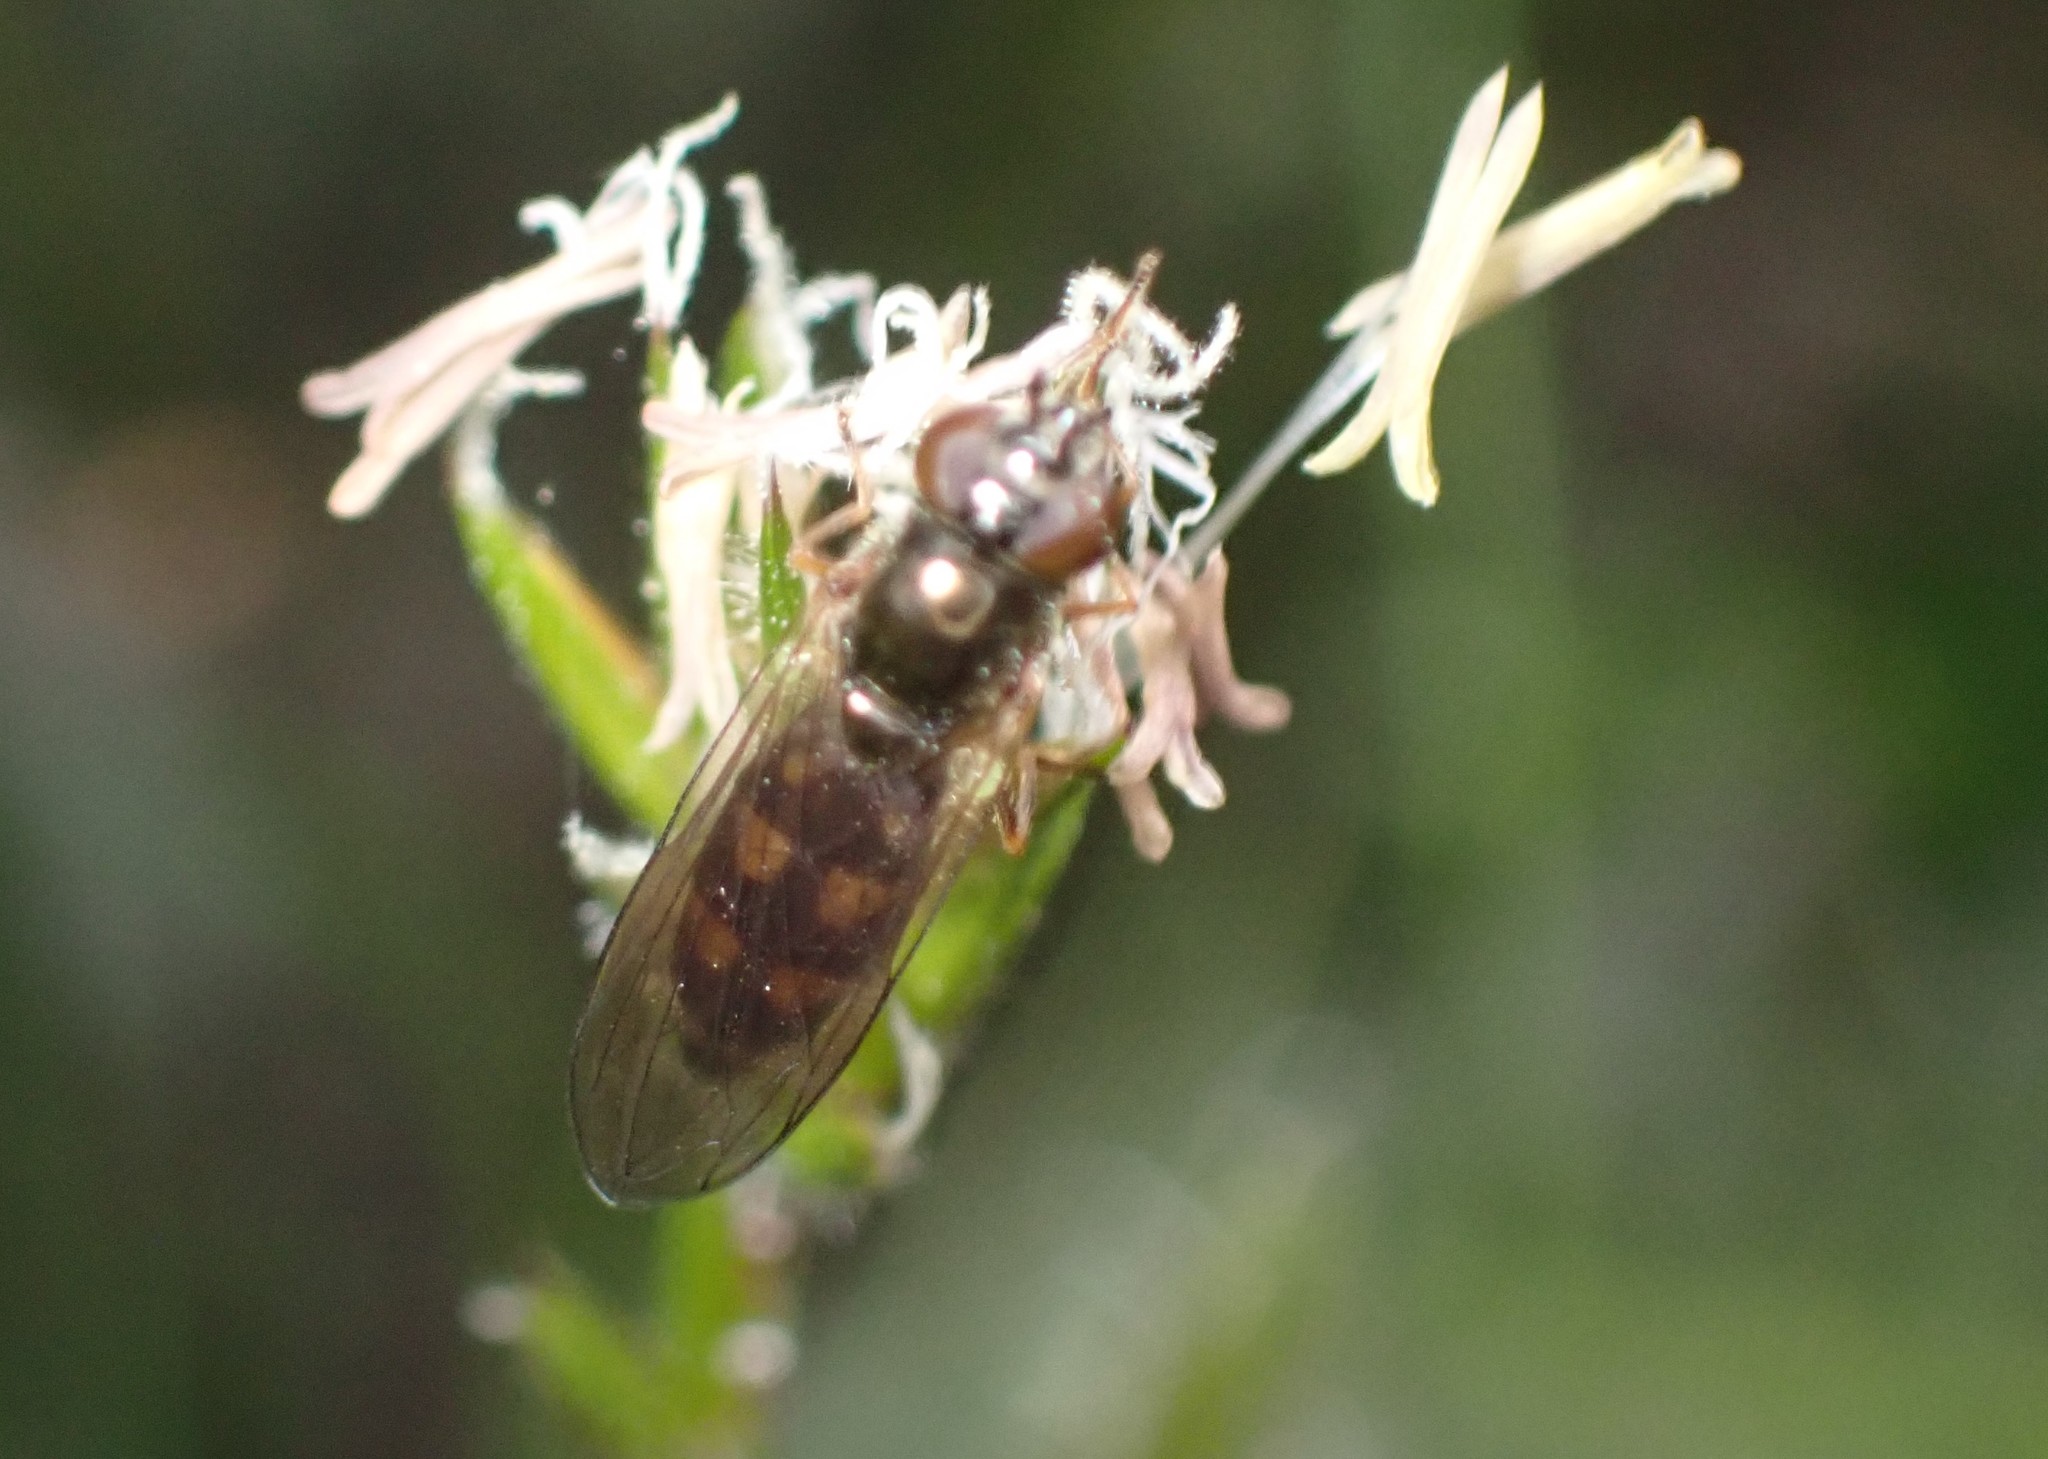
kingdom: Animalia
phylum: Arthropoda
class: Insecta
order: Diptera
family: Syrphidae
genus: Melanostoma
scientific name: Melanostoma scalare
